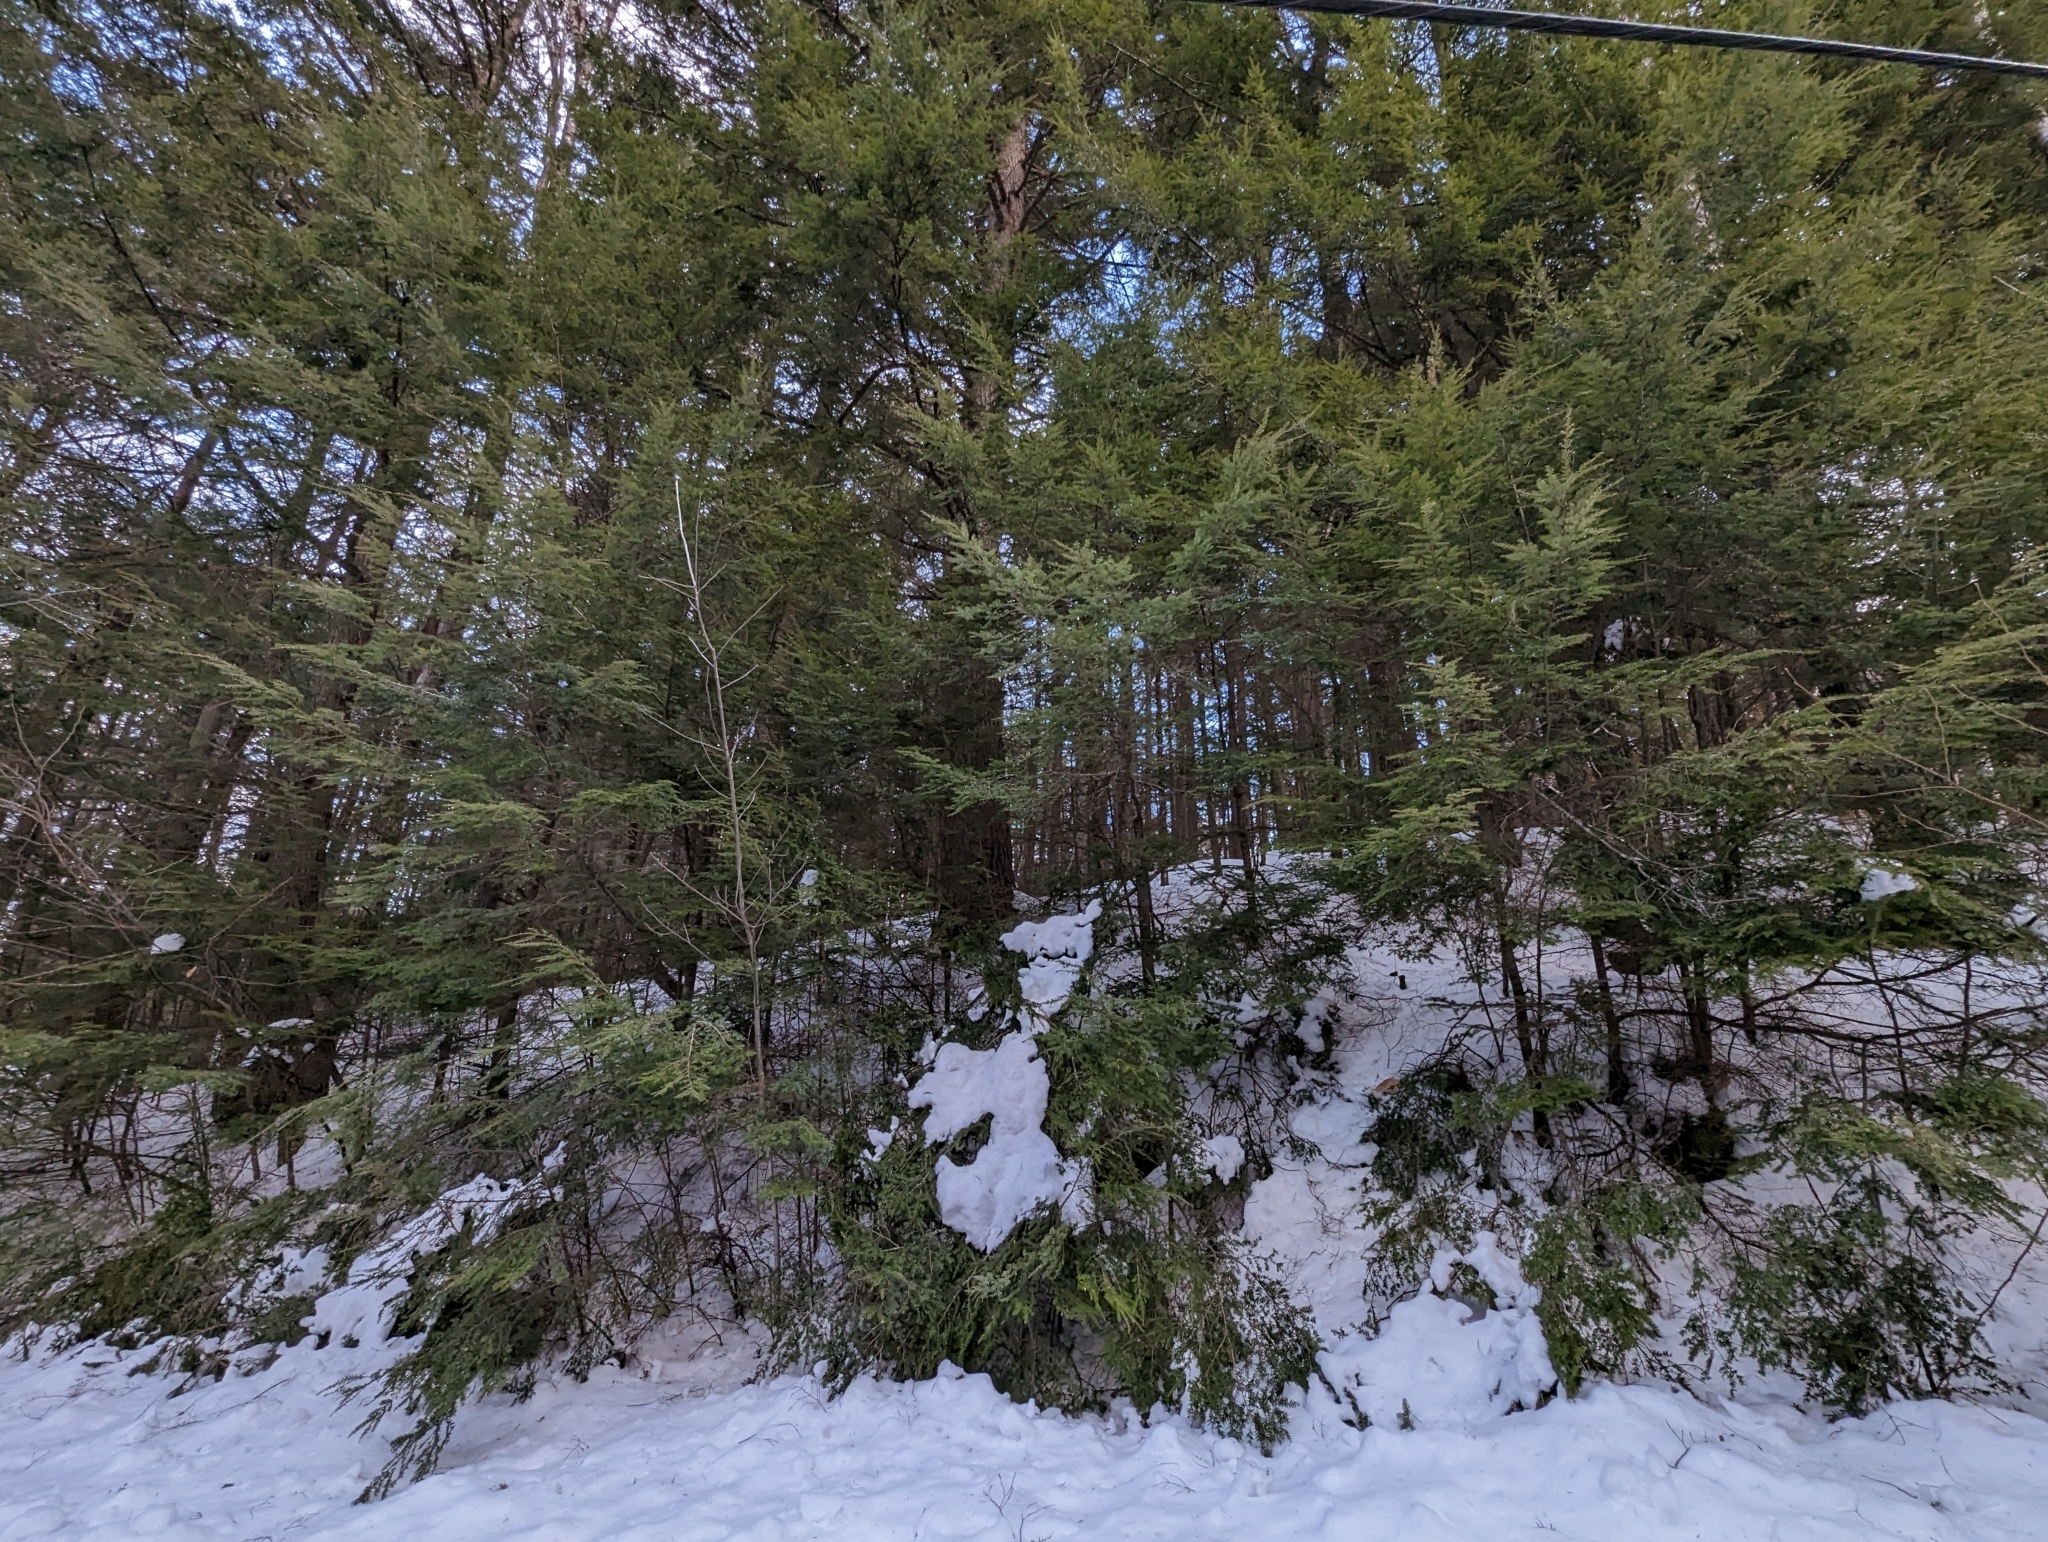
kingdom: Plantae
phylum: Tracheophyta
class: Pinopsida
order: Pinales
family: Pinaceae
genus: Tsuga
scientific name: Tsuga canadensis
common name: Eastern hemlock
